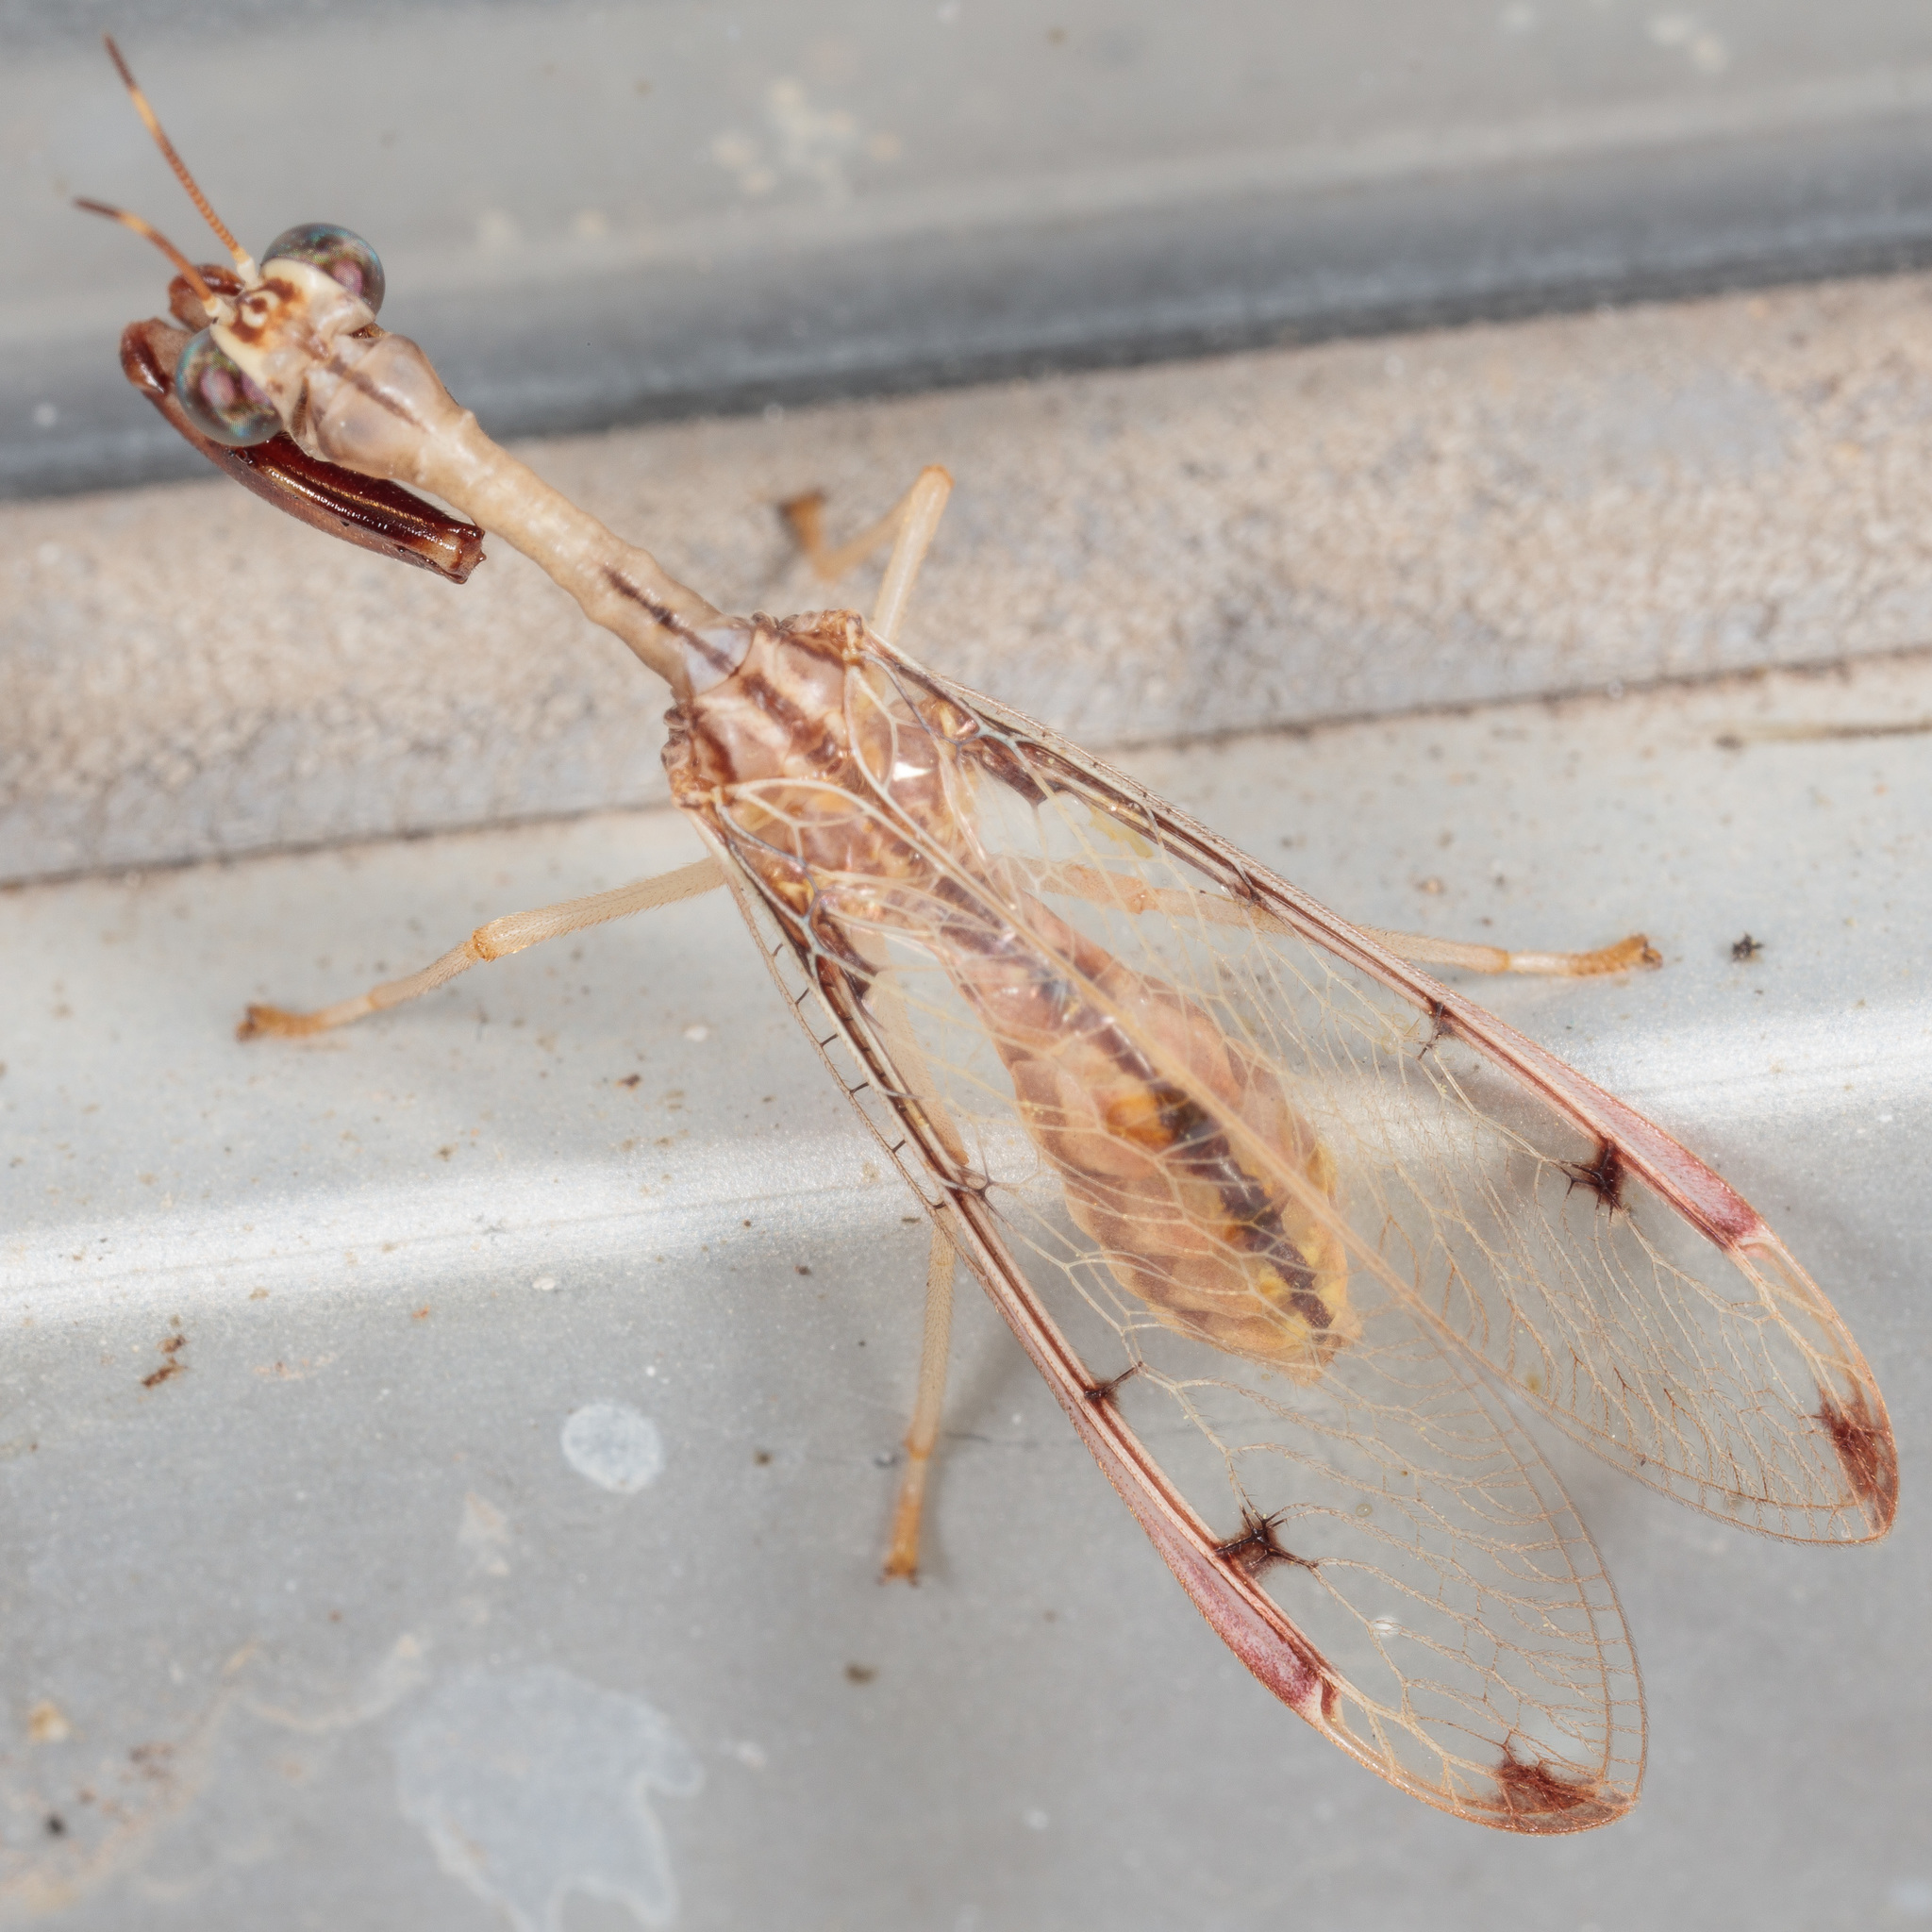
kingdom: Animalia
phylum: Arthropoda
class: Insecta
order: Neuroptera
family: Mantispidae
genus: Dicromantispa
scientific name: Dicromantispa interrupta
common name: Four-spotted mantidfly
